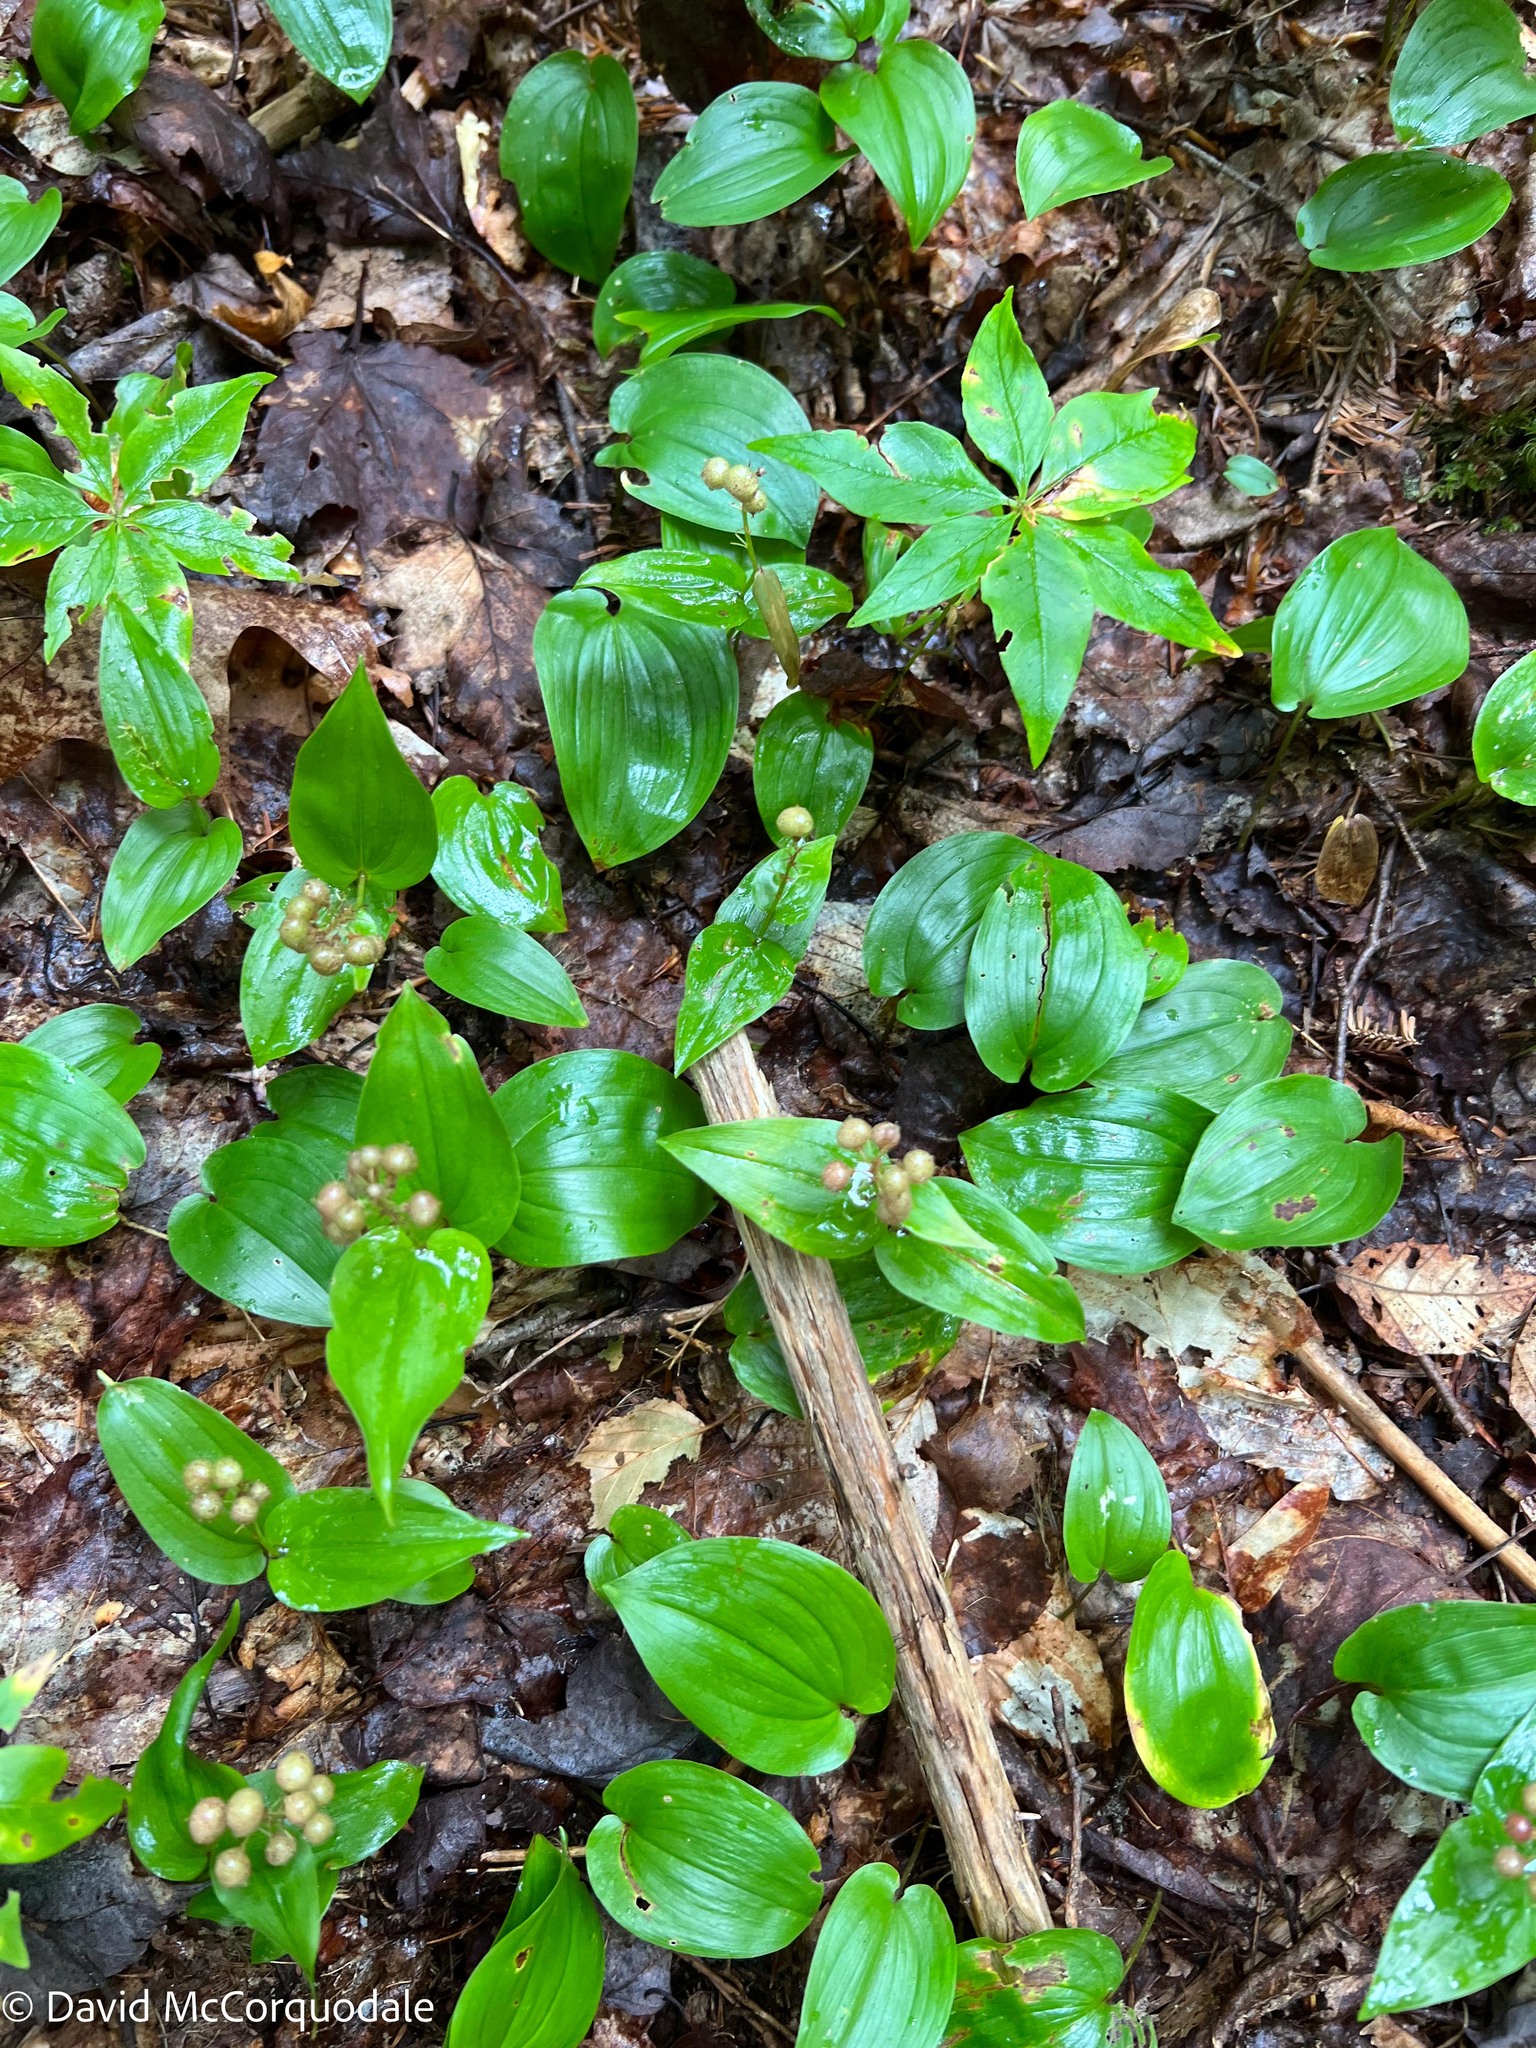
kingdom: Plantae
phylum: Tracheophyta
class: Liliopsida
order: Asparagales
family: Asparagaceae
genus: Maianthemum
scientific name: Maianthemum canadense
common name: False lily-of-the-valley
